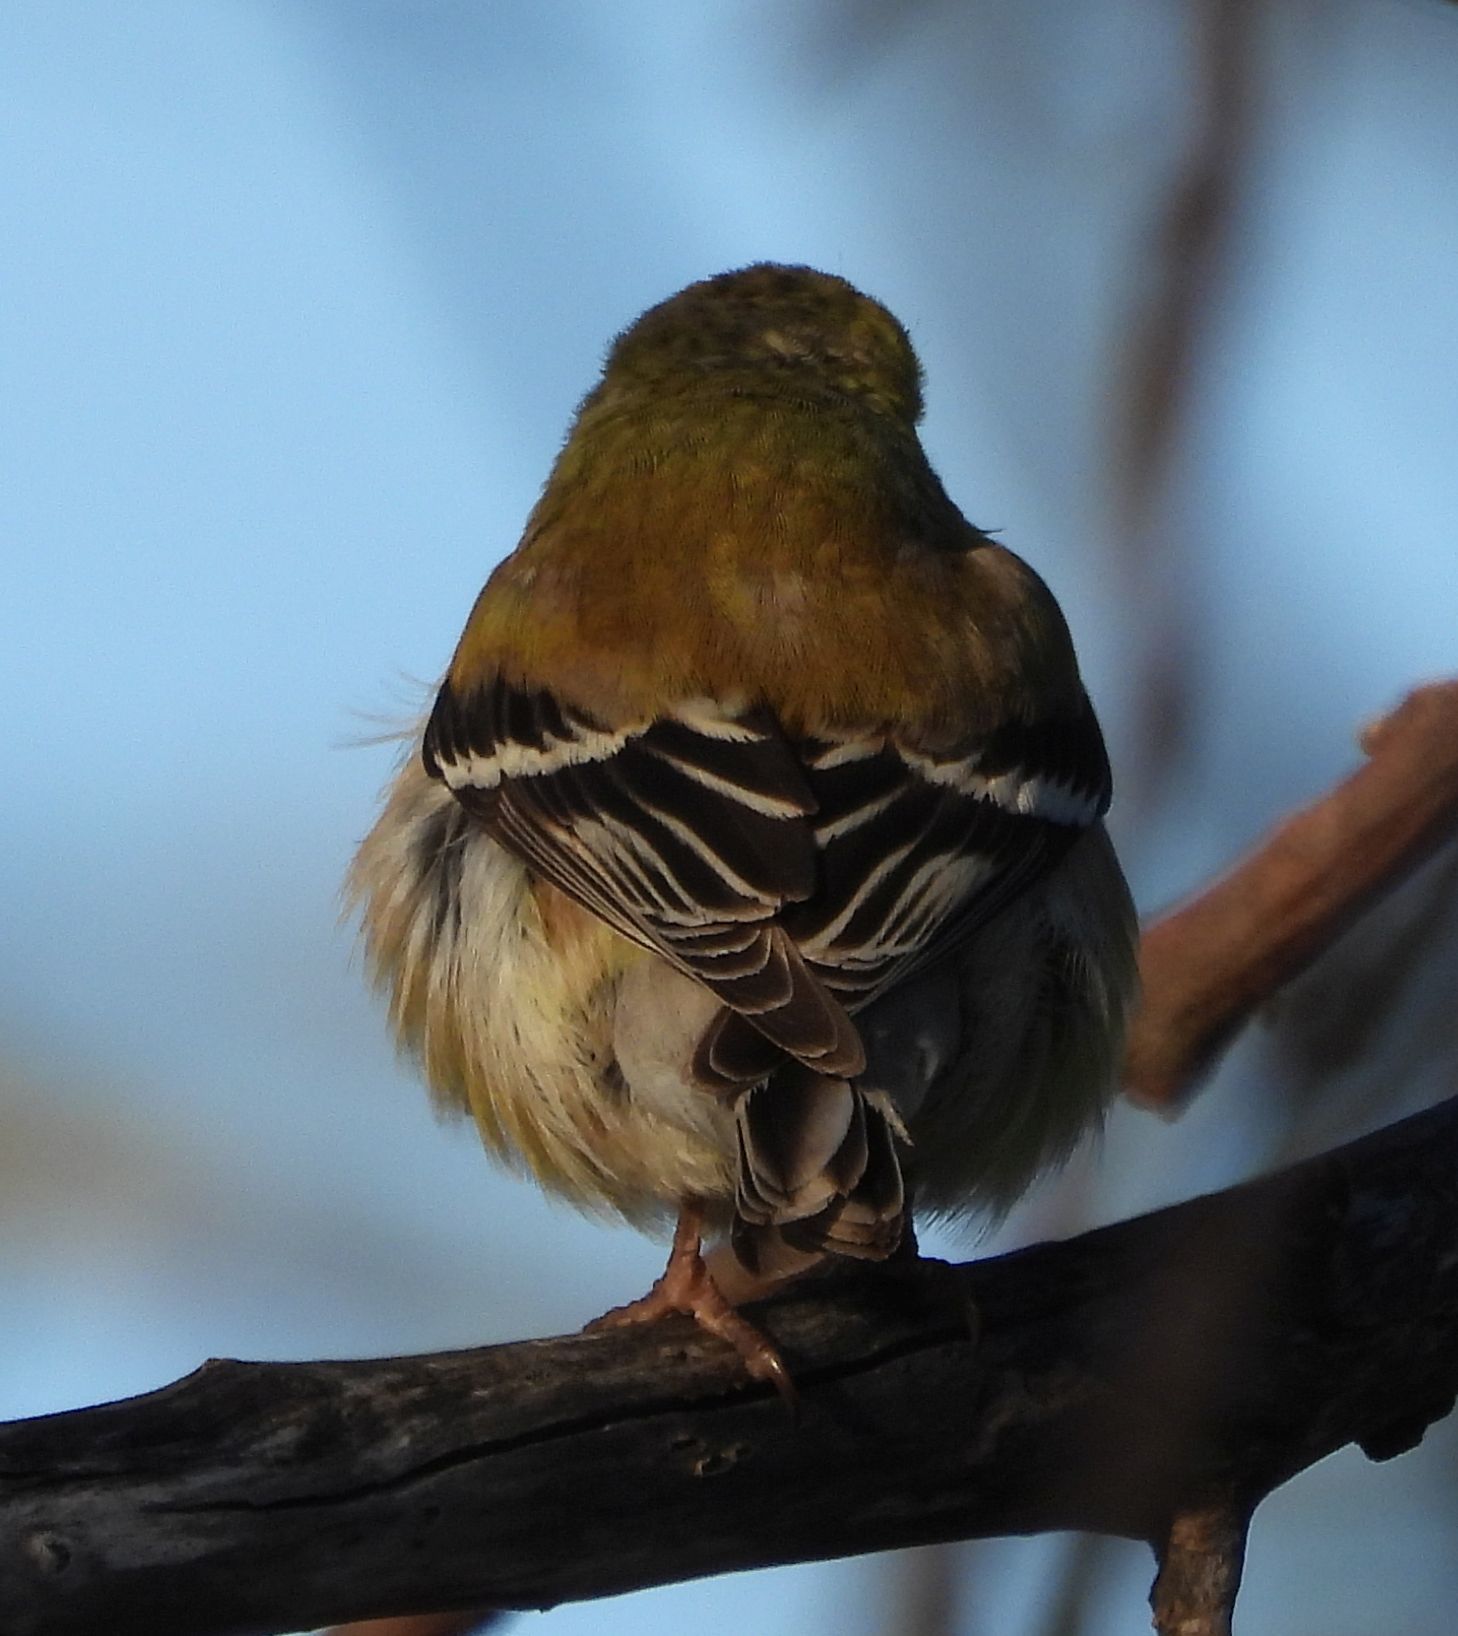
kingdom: Animalia
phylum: Chordata
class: Aves
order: Passeriformes
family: Fringillidae
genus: Spinus
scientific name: Spinus tristis
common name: American goldfinch
